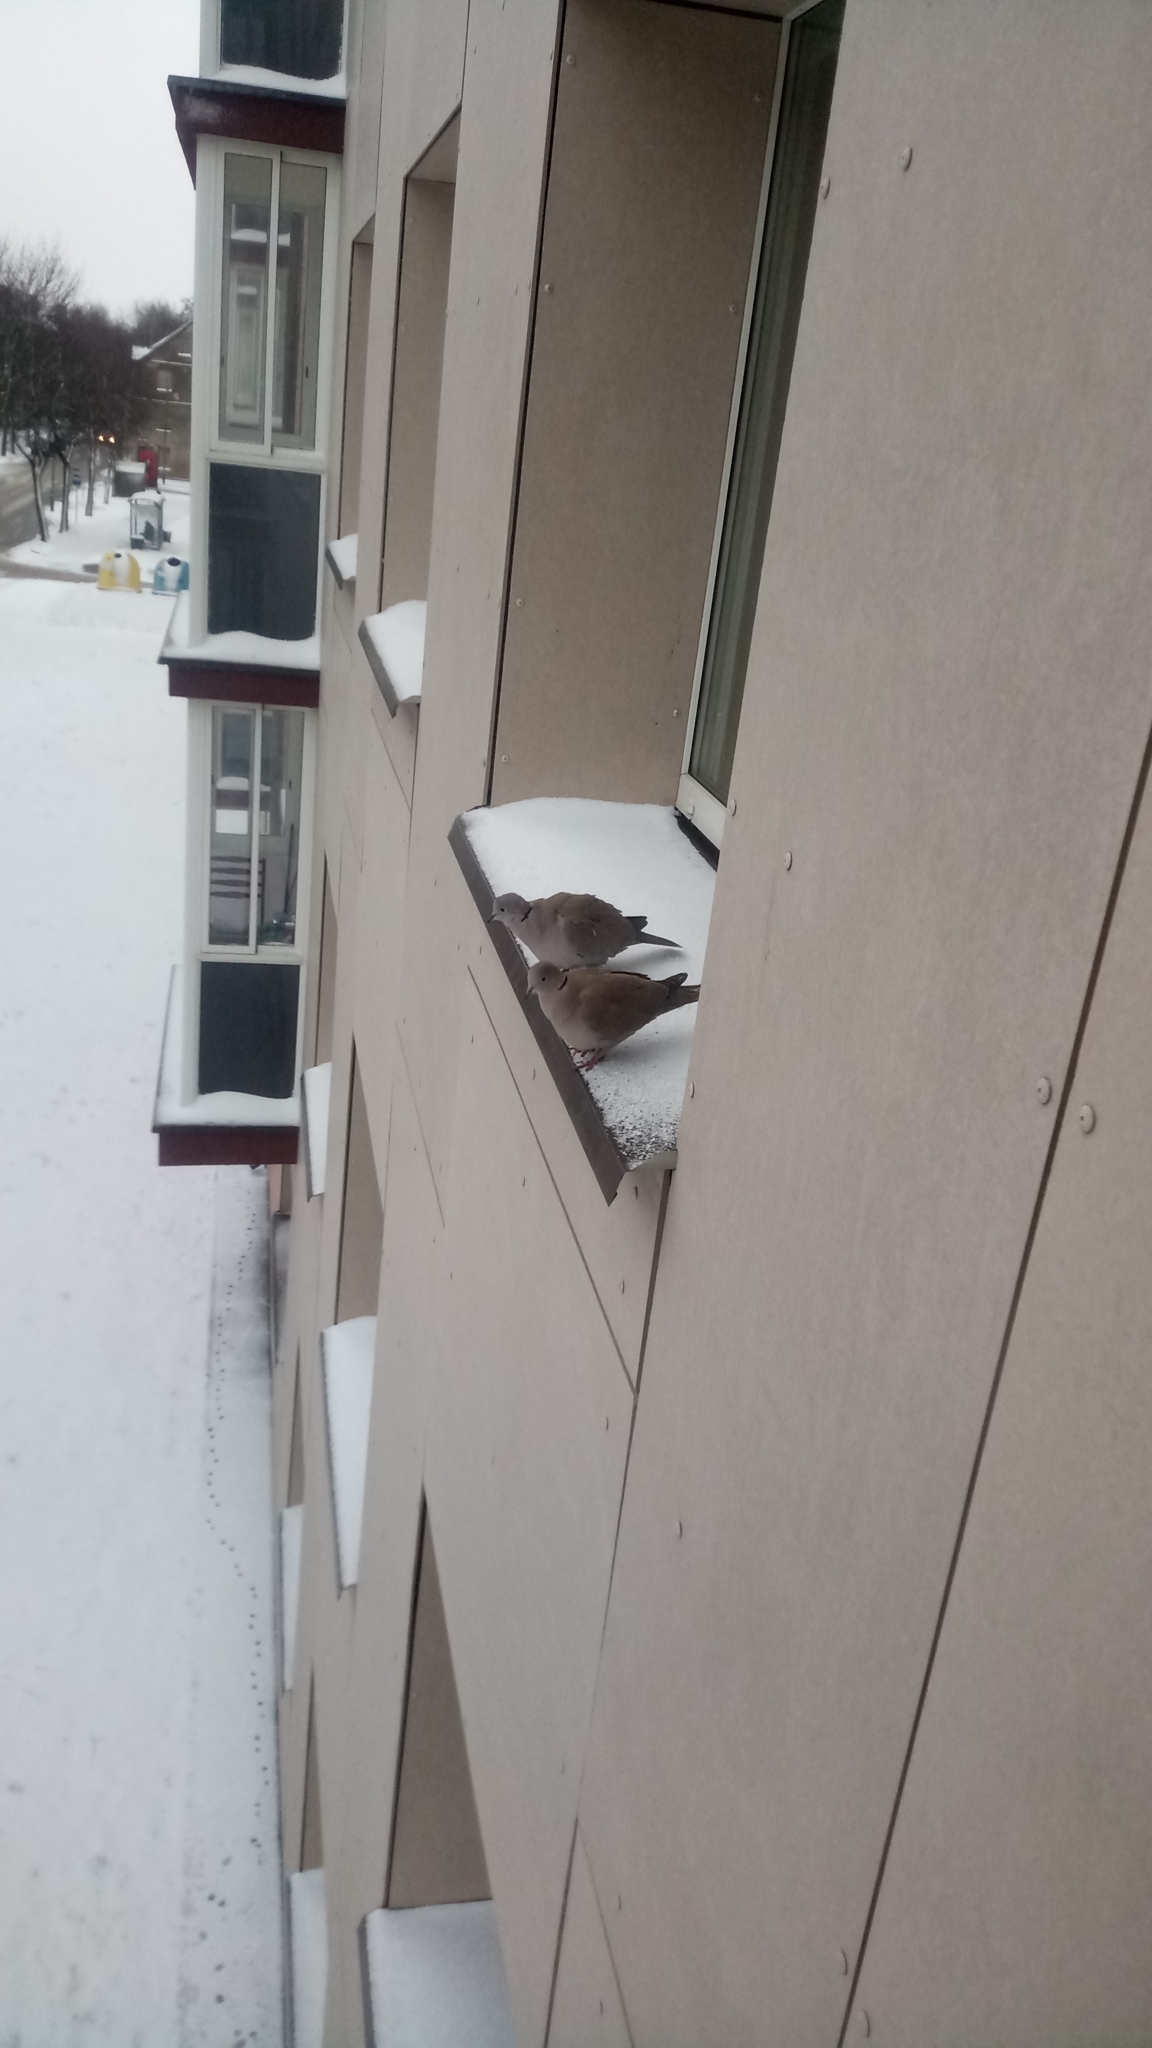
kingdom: Animalia
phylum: Chordata
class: Aves
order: Columbiformes
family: Columbidae
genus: Streptopelia
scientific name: Streptopelia decaocto
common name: Eurasian collared dove
